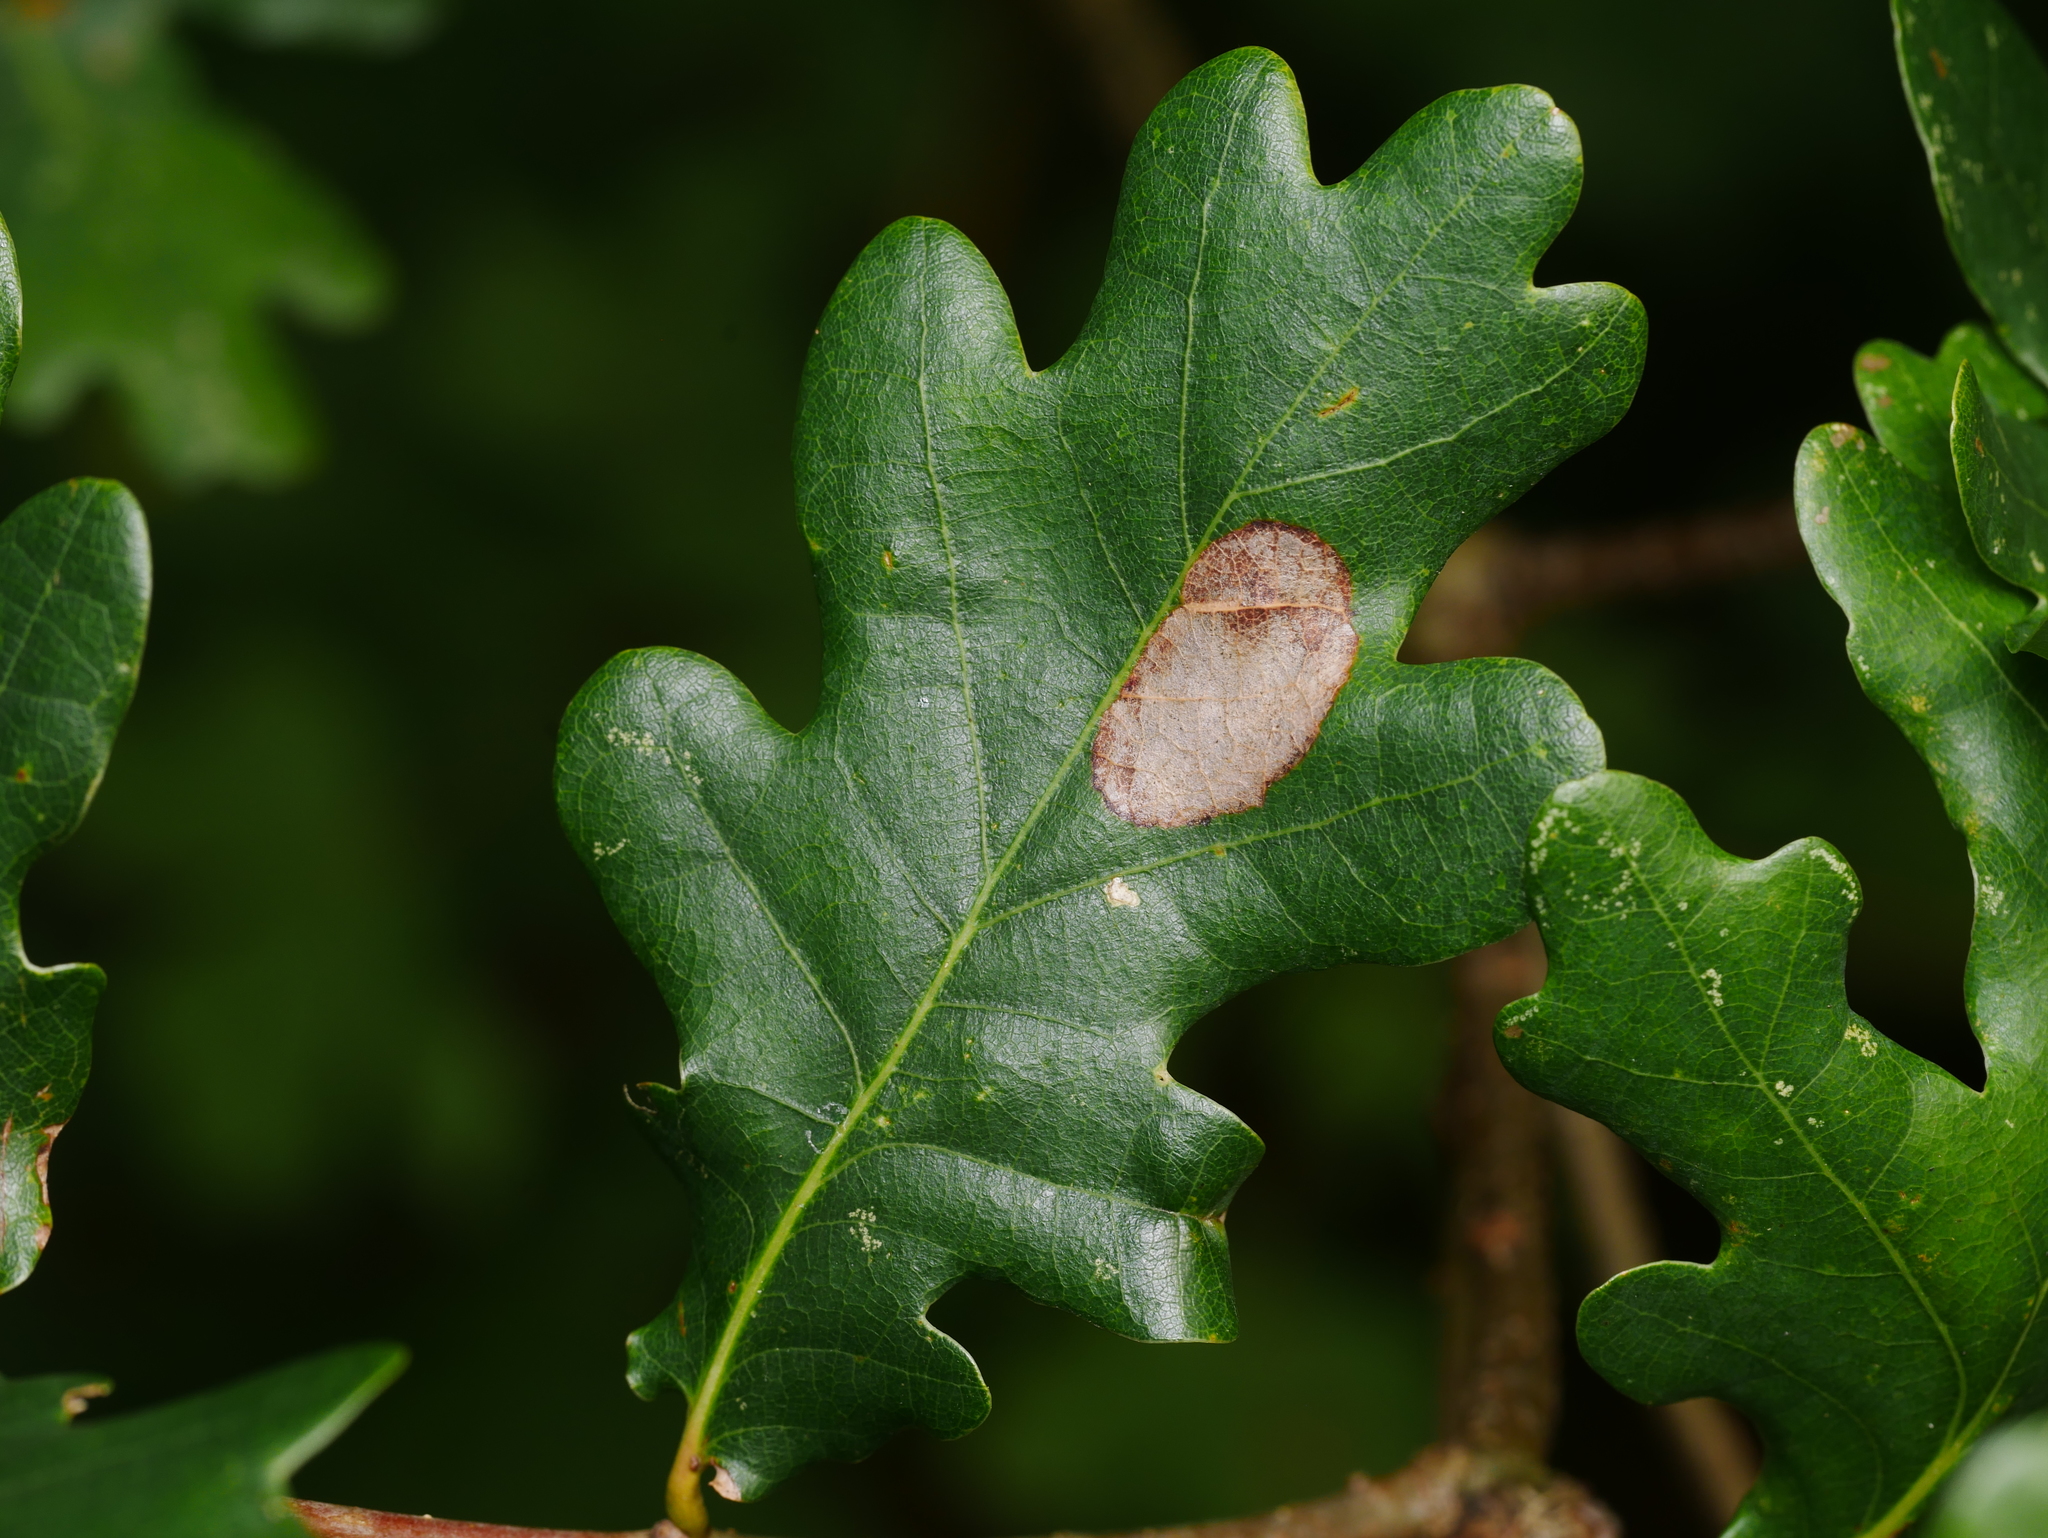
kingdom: Plantae
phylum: Tracheophyta
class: Magnoliopsida
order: Fagales
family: Fagaceae
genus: Quercus
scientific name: Quercus robur
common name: Pedunculate oak
